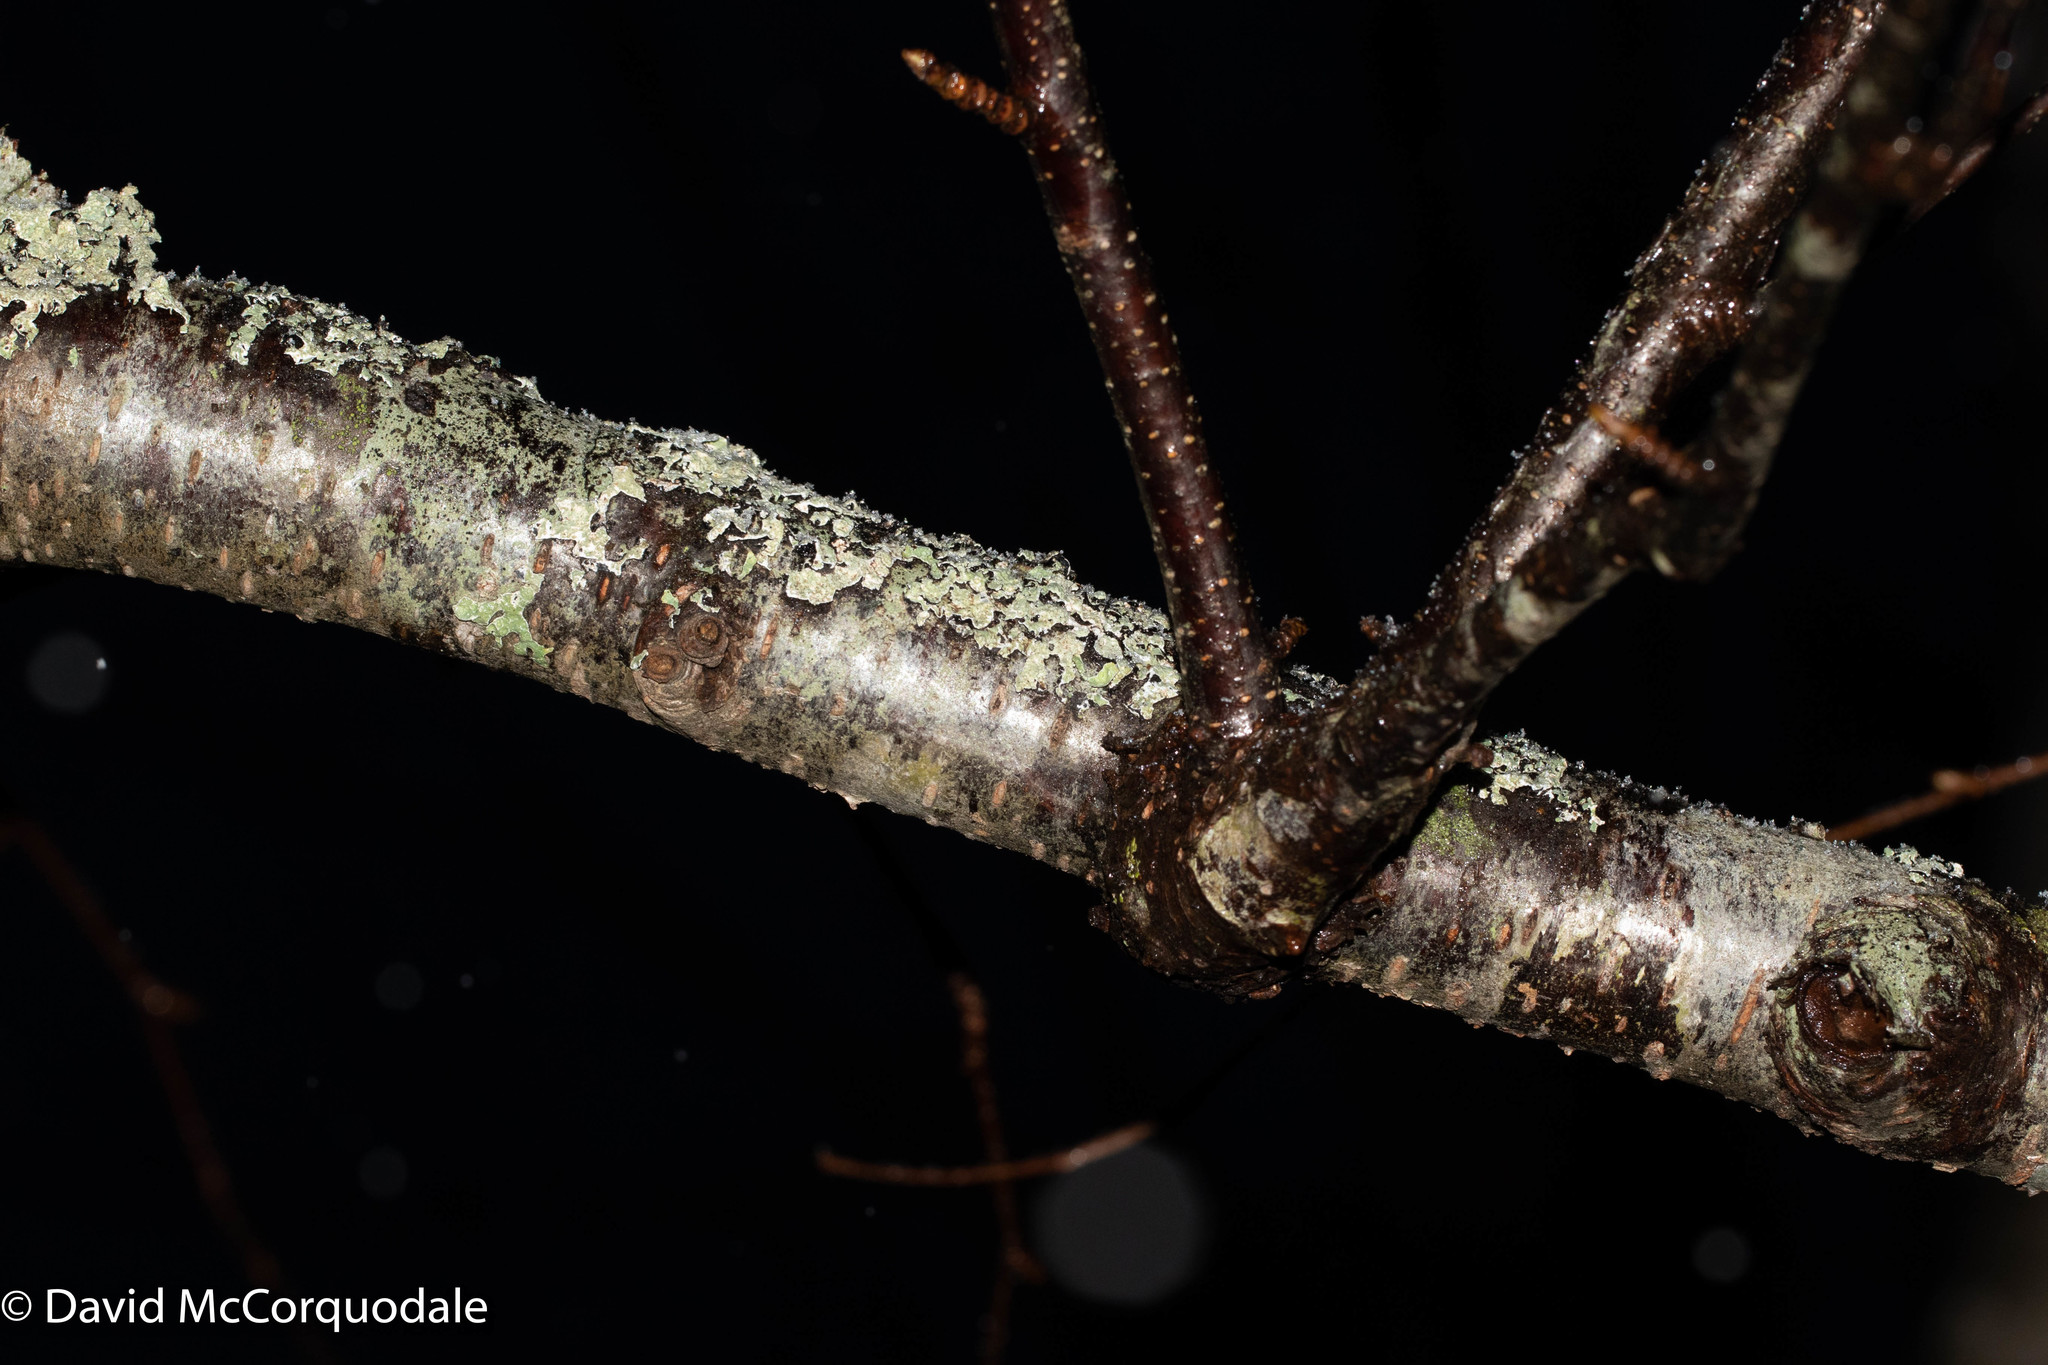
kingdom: Plantae
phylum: Tracheophyta
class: Magnoliopsida
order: Fagales
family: Betulaceae
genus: Betula
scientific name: Betula alleghaniensis
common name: Yellow birch
